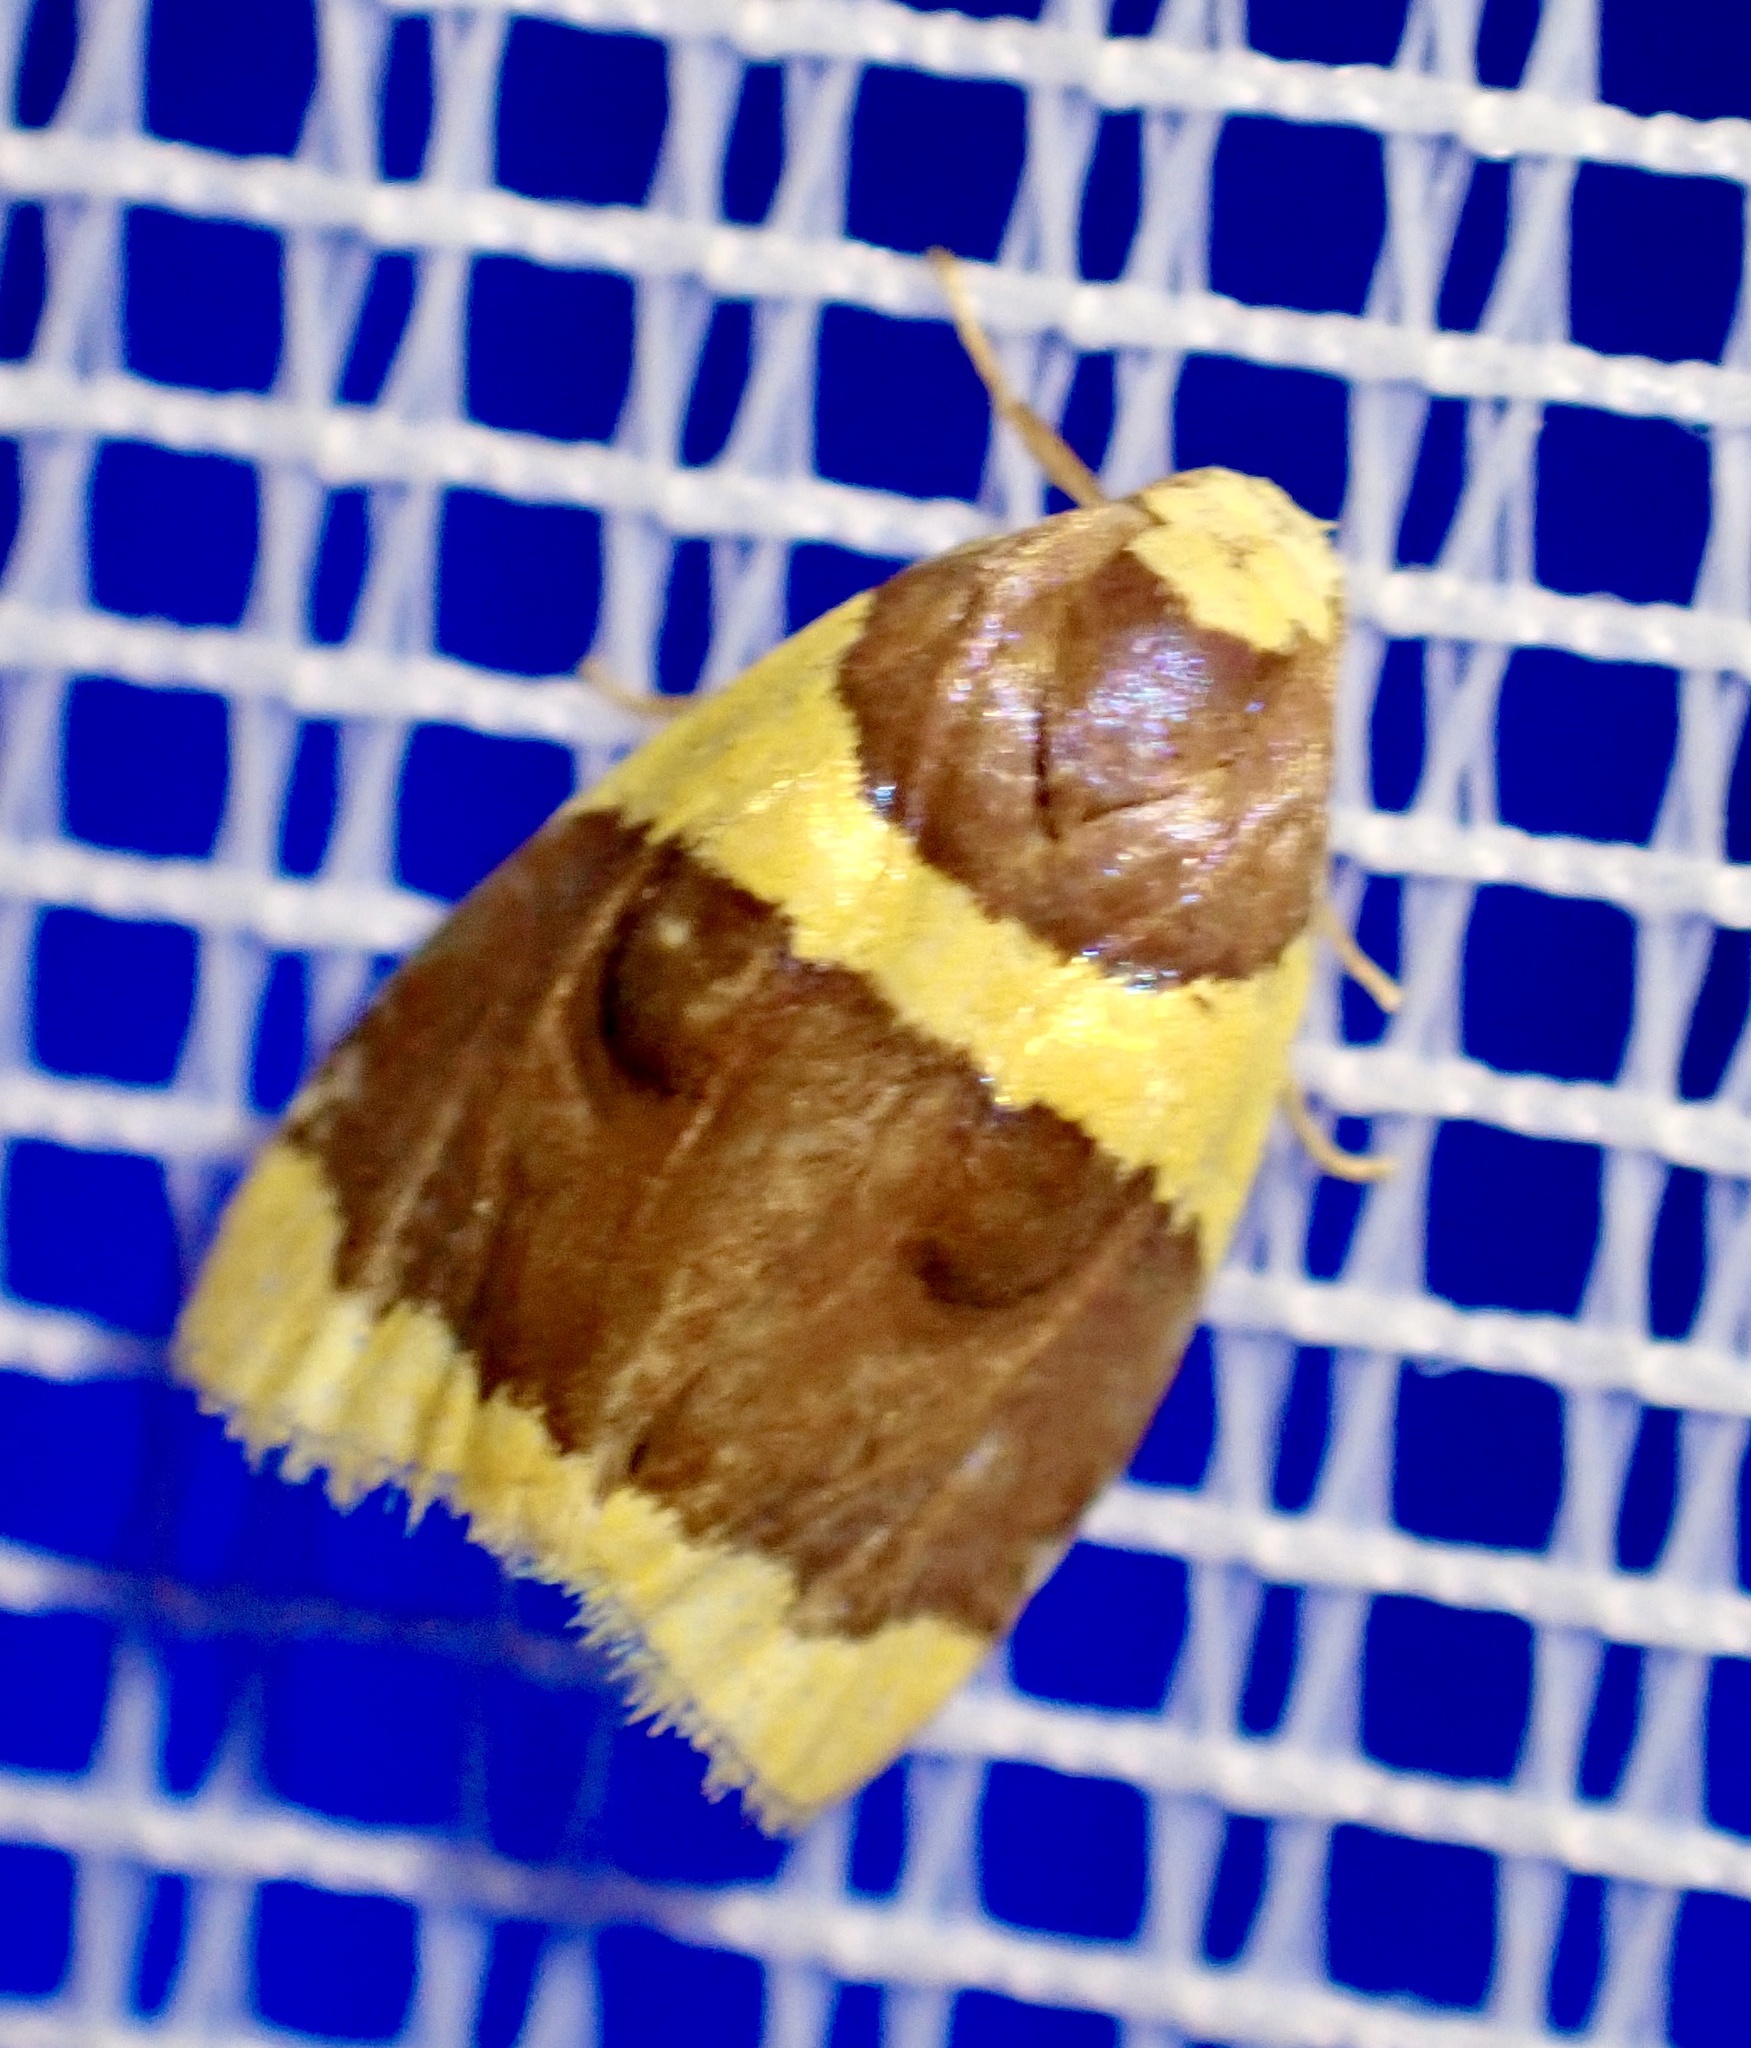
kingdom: Animalia
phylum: Arthropoda
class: Insecta
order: Lepidoptera
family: Erebidae
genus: Stenoscaptia
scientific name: Stenoscaptia fovealis
